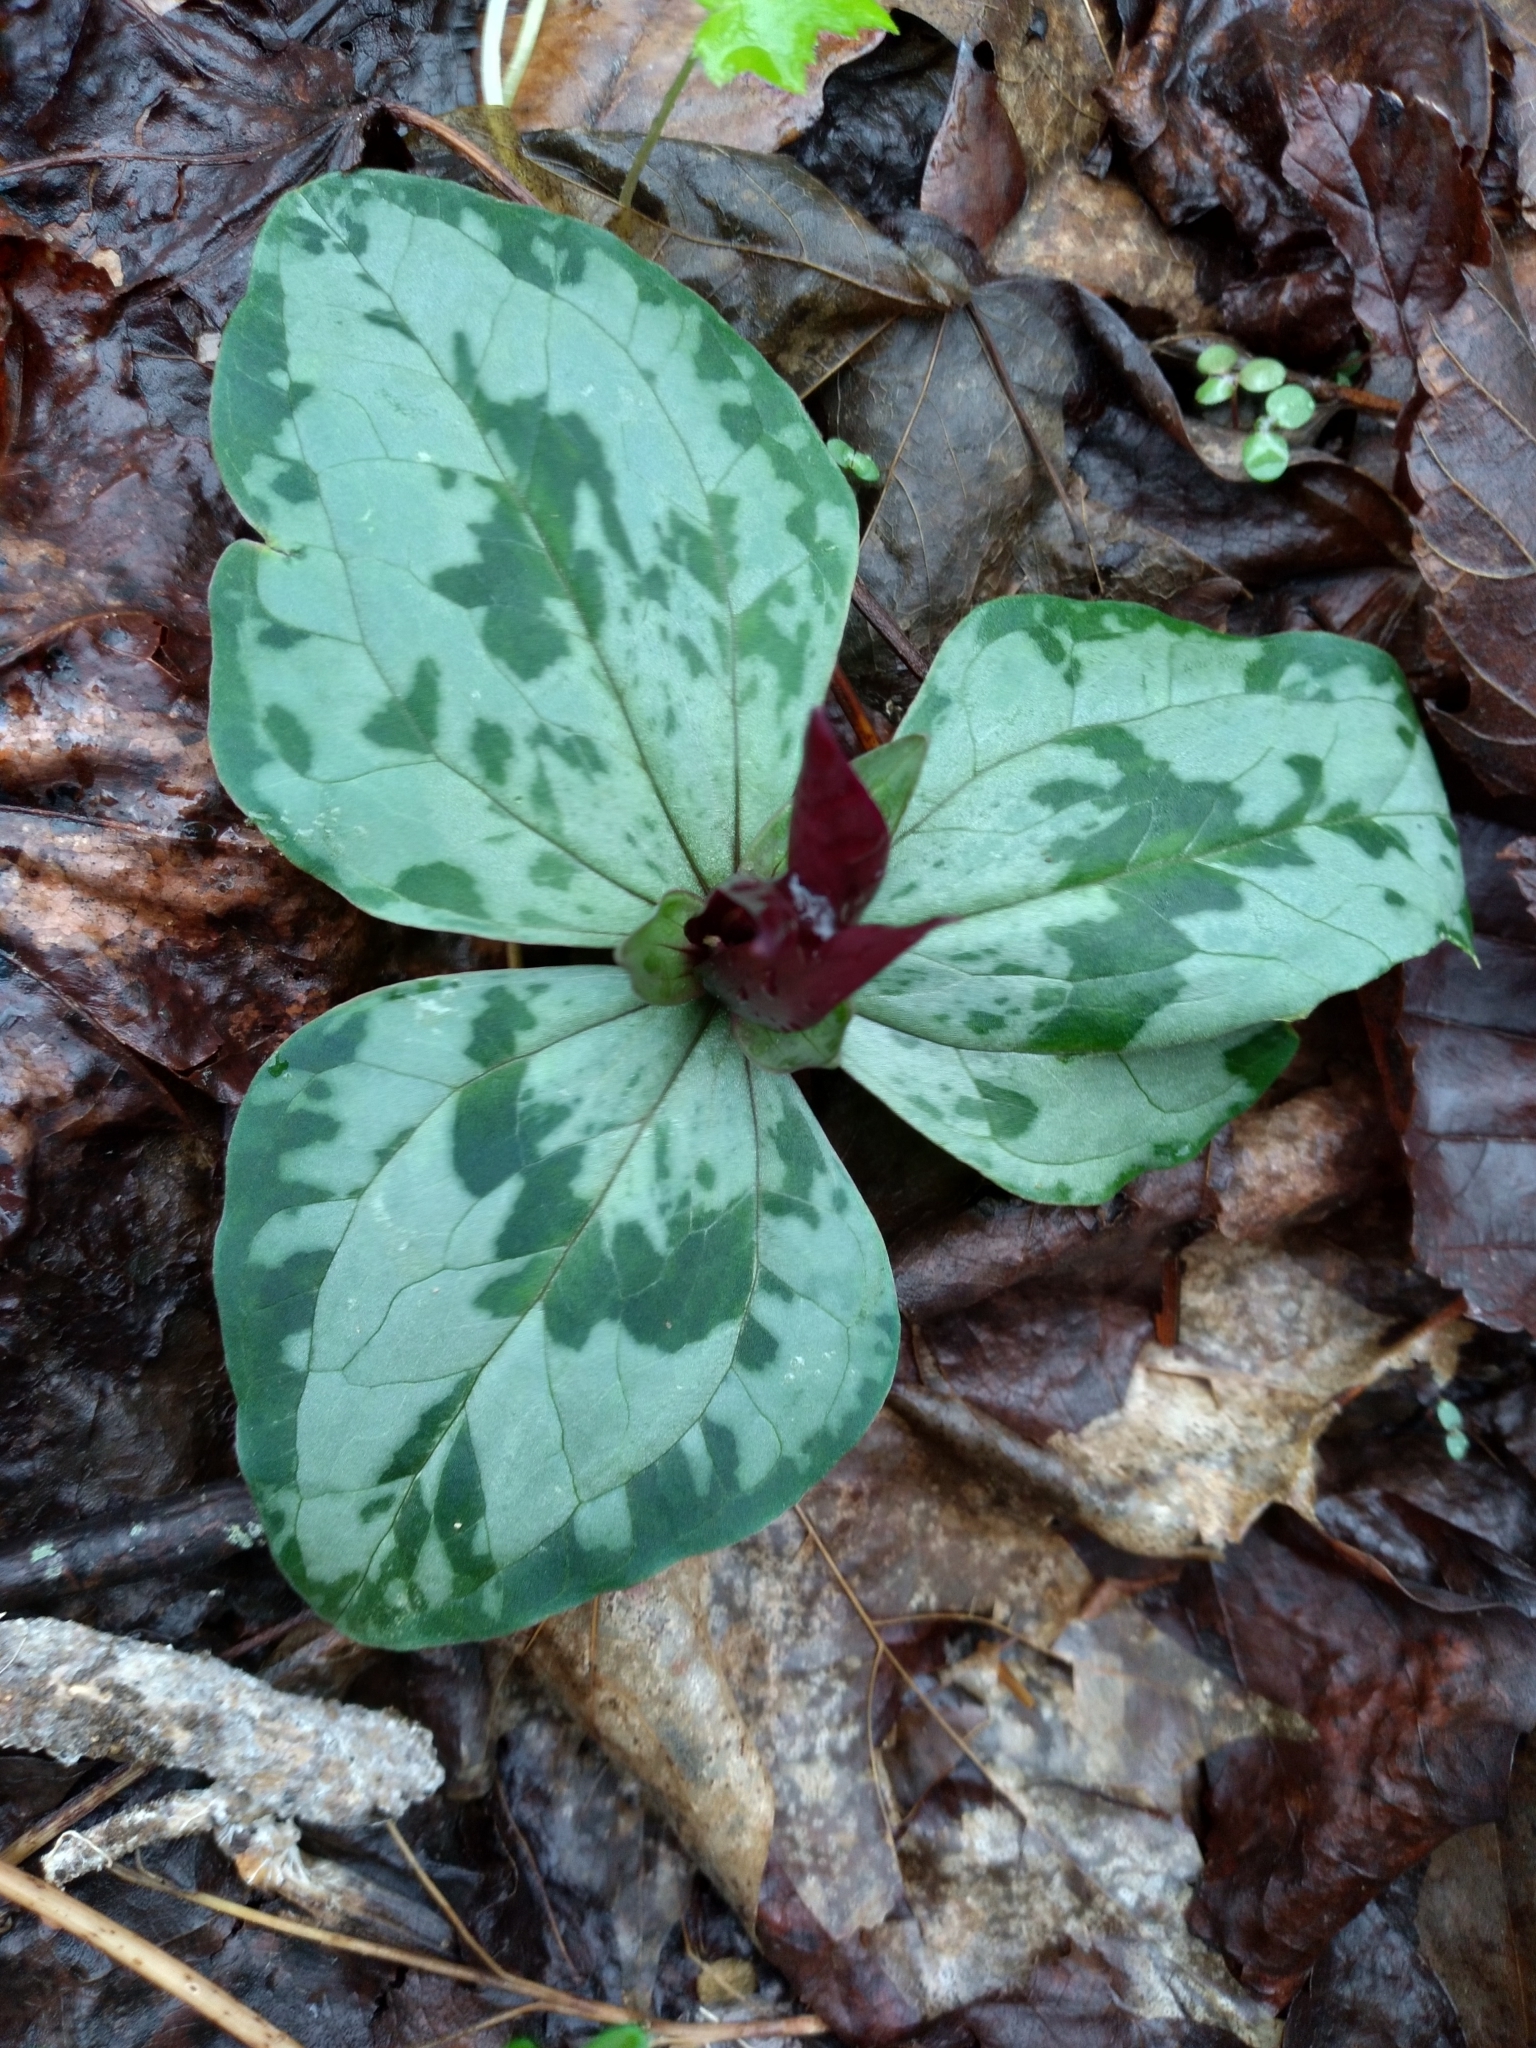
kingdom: Plantae
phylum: Tracheophyta
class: Liliopsida
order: Liliales
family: Melanthiaceae
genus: Trillium
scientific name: Trillium decumbens
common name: Decumbent trillium
